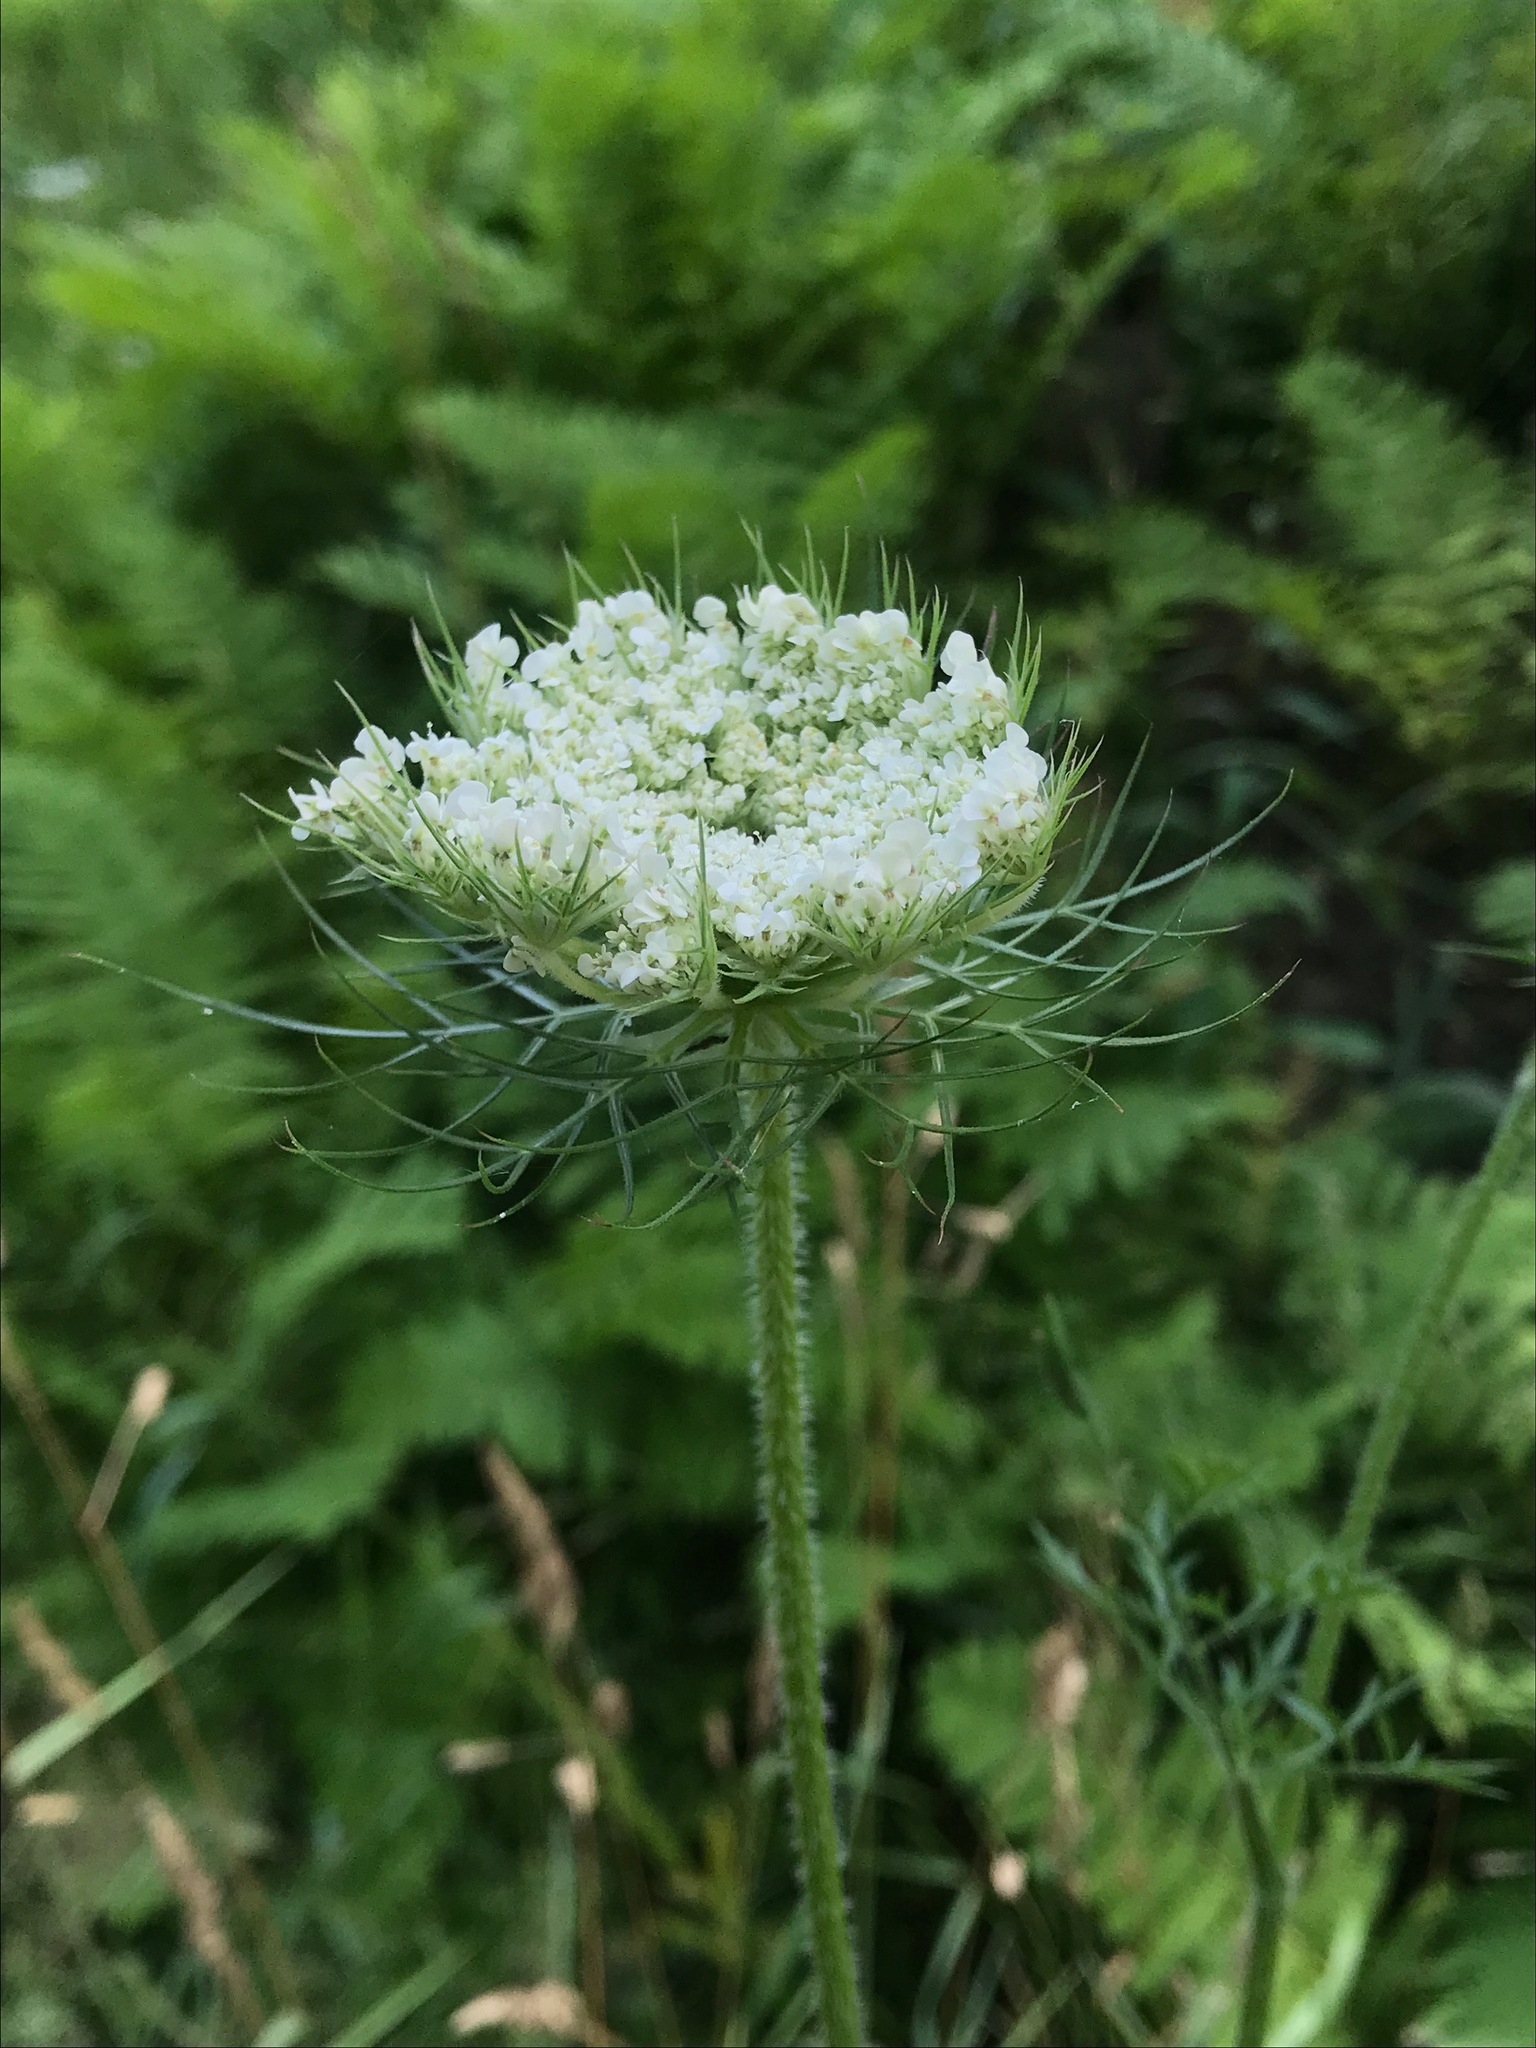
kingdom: Plantae
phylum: Tracheophyta
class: Magnoliopsida
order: Apiales
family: Apiaceae
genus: Daucus
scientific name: Daucus carota
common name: Wild carrot
